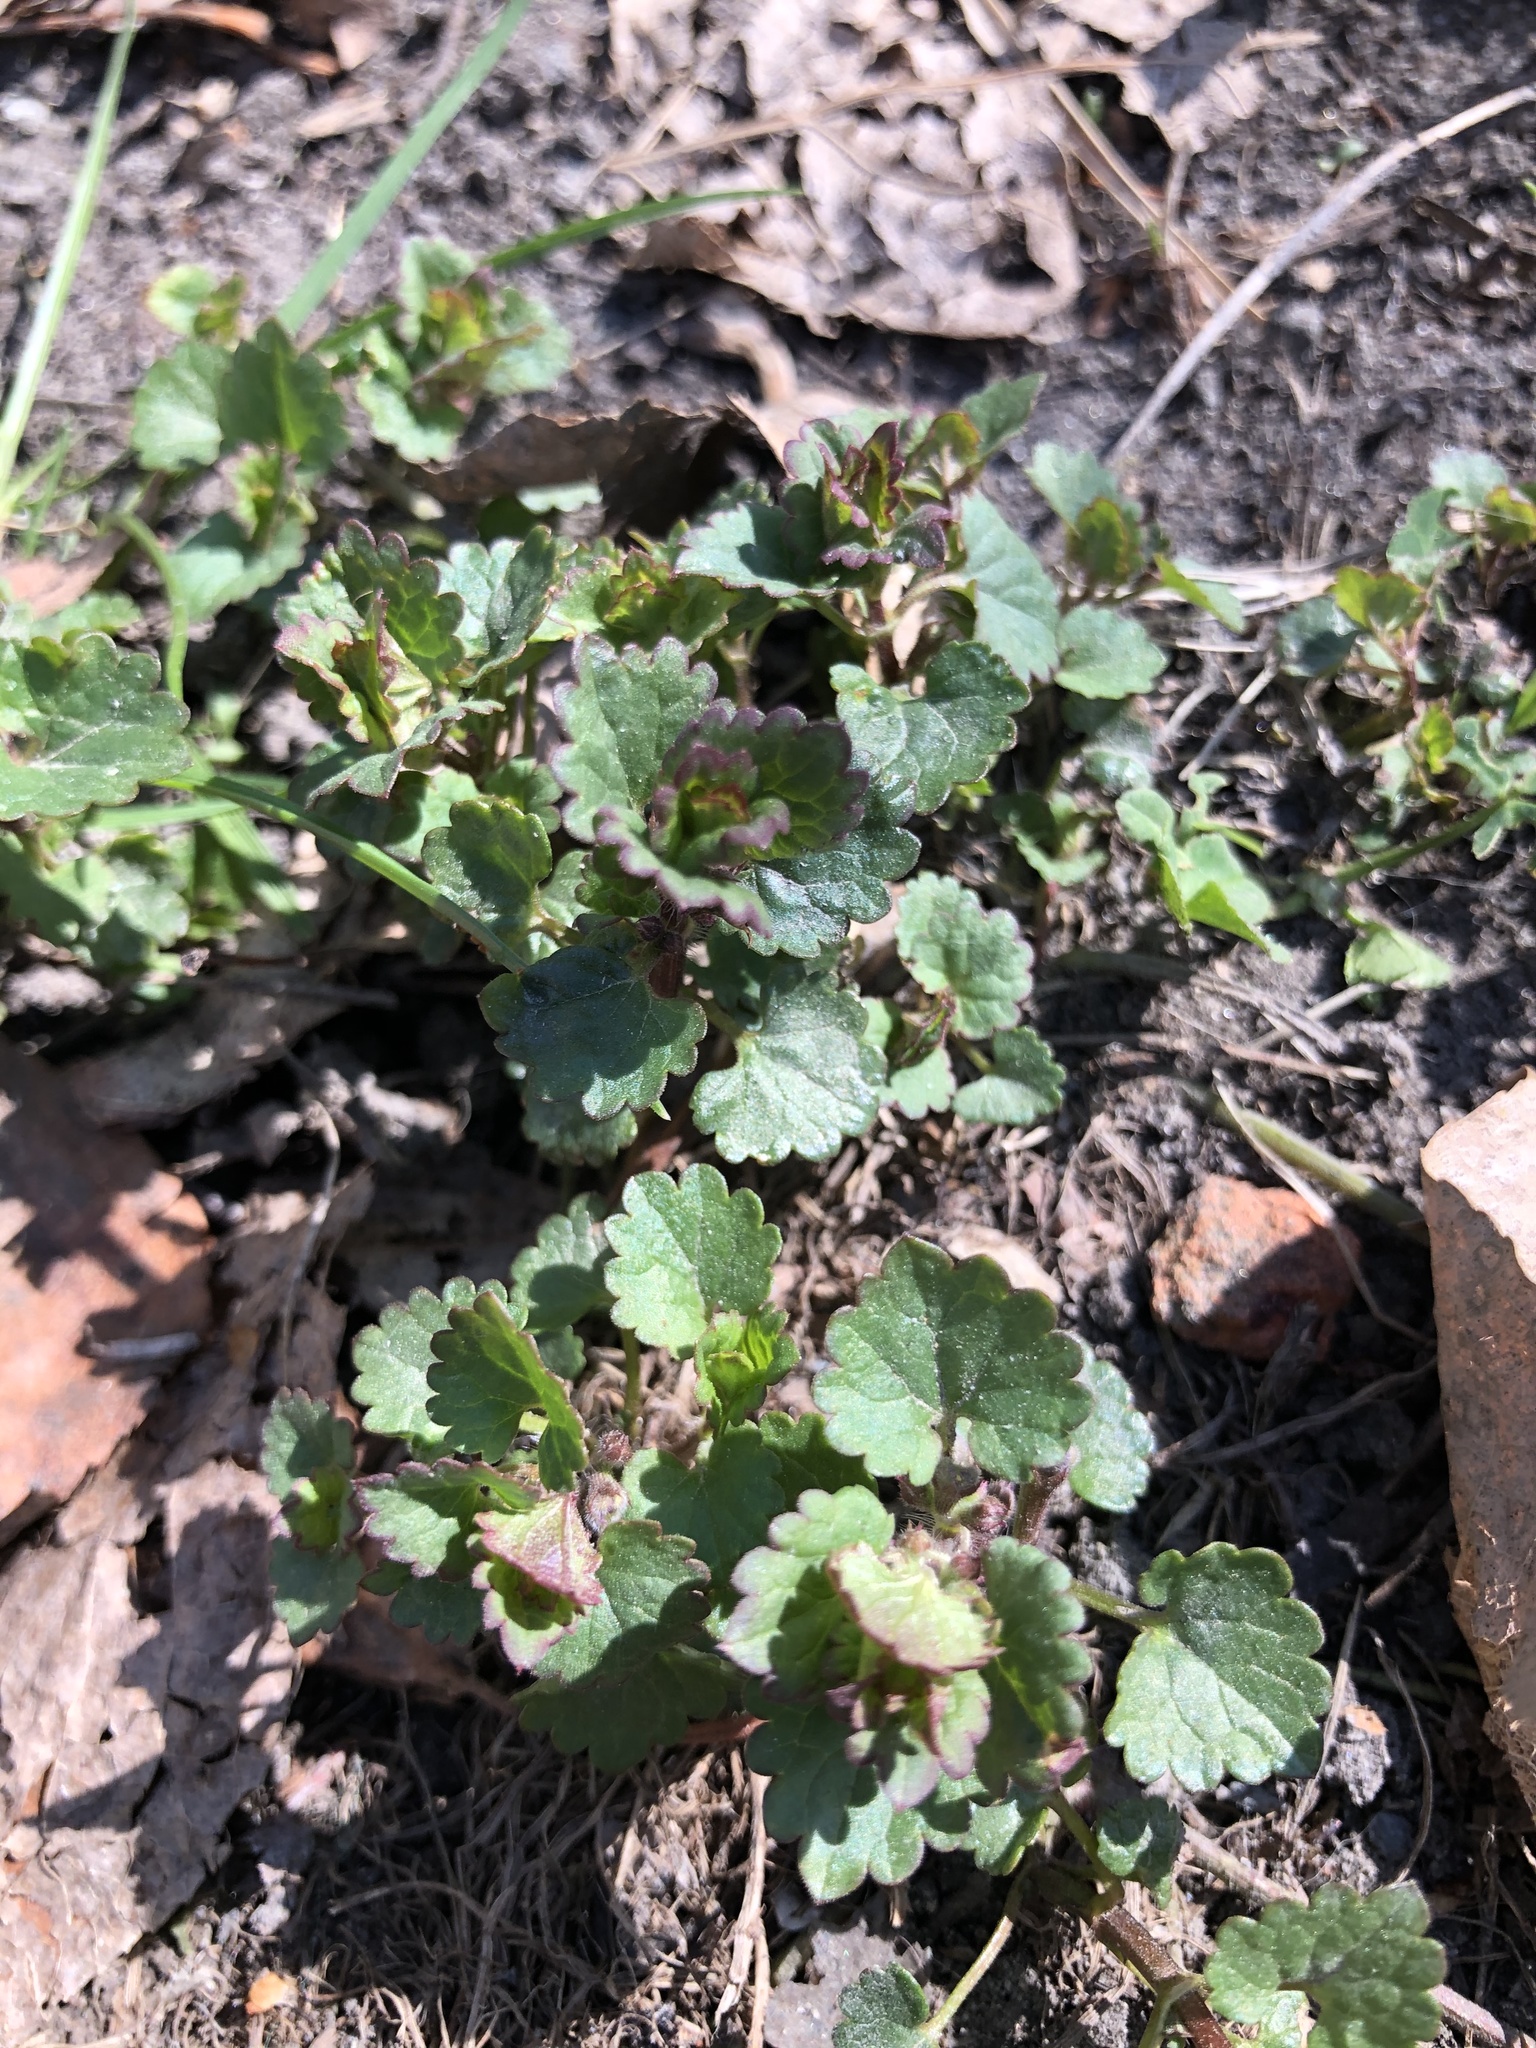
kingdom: Plantae
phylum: Tracheophyta
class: Magnoliopsida
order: Lamiales
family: Lamiaceae
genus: Glechoma
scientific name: Glechoma hederacea
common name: Ground ivy
